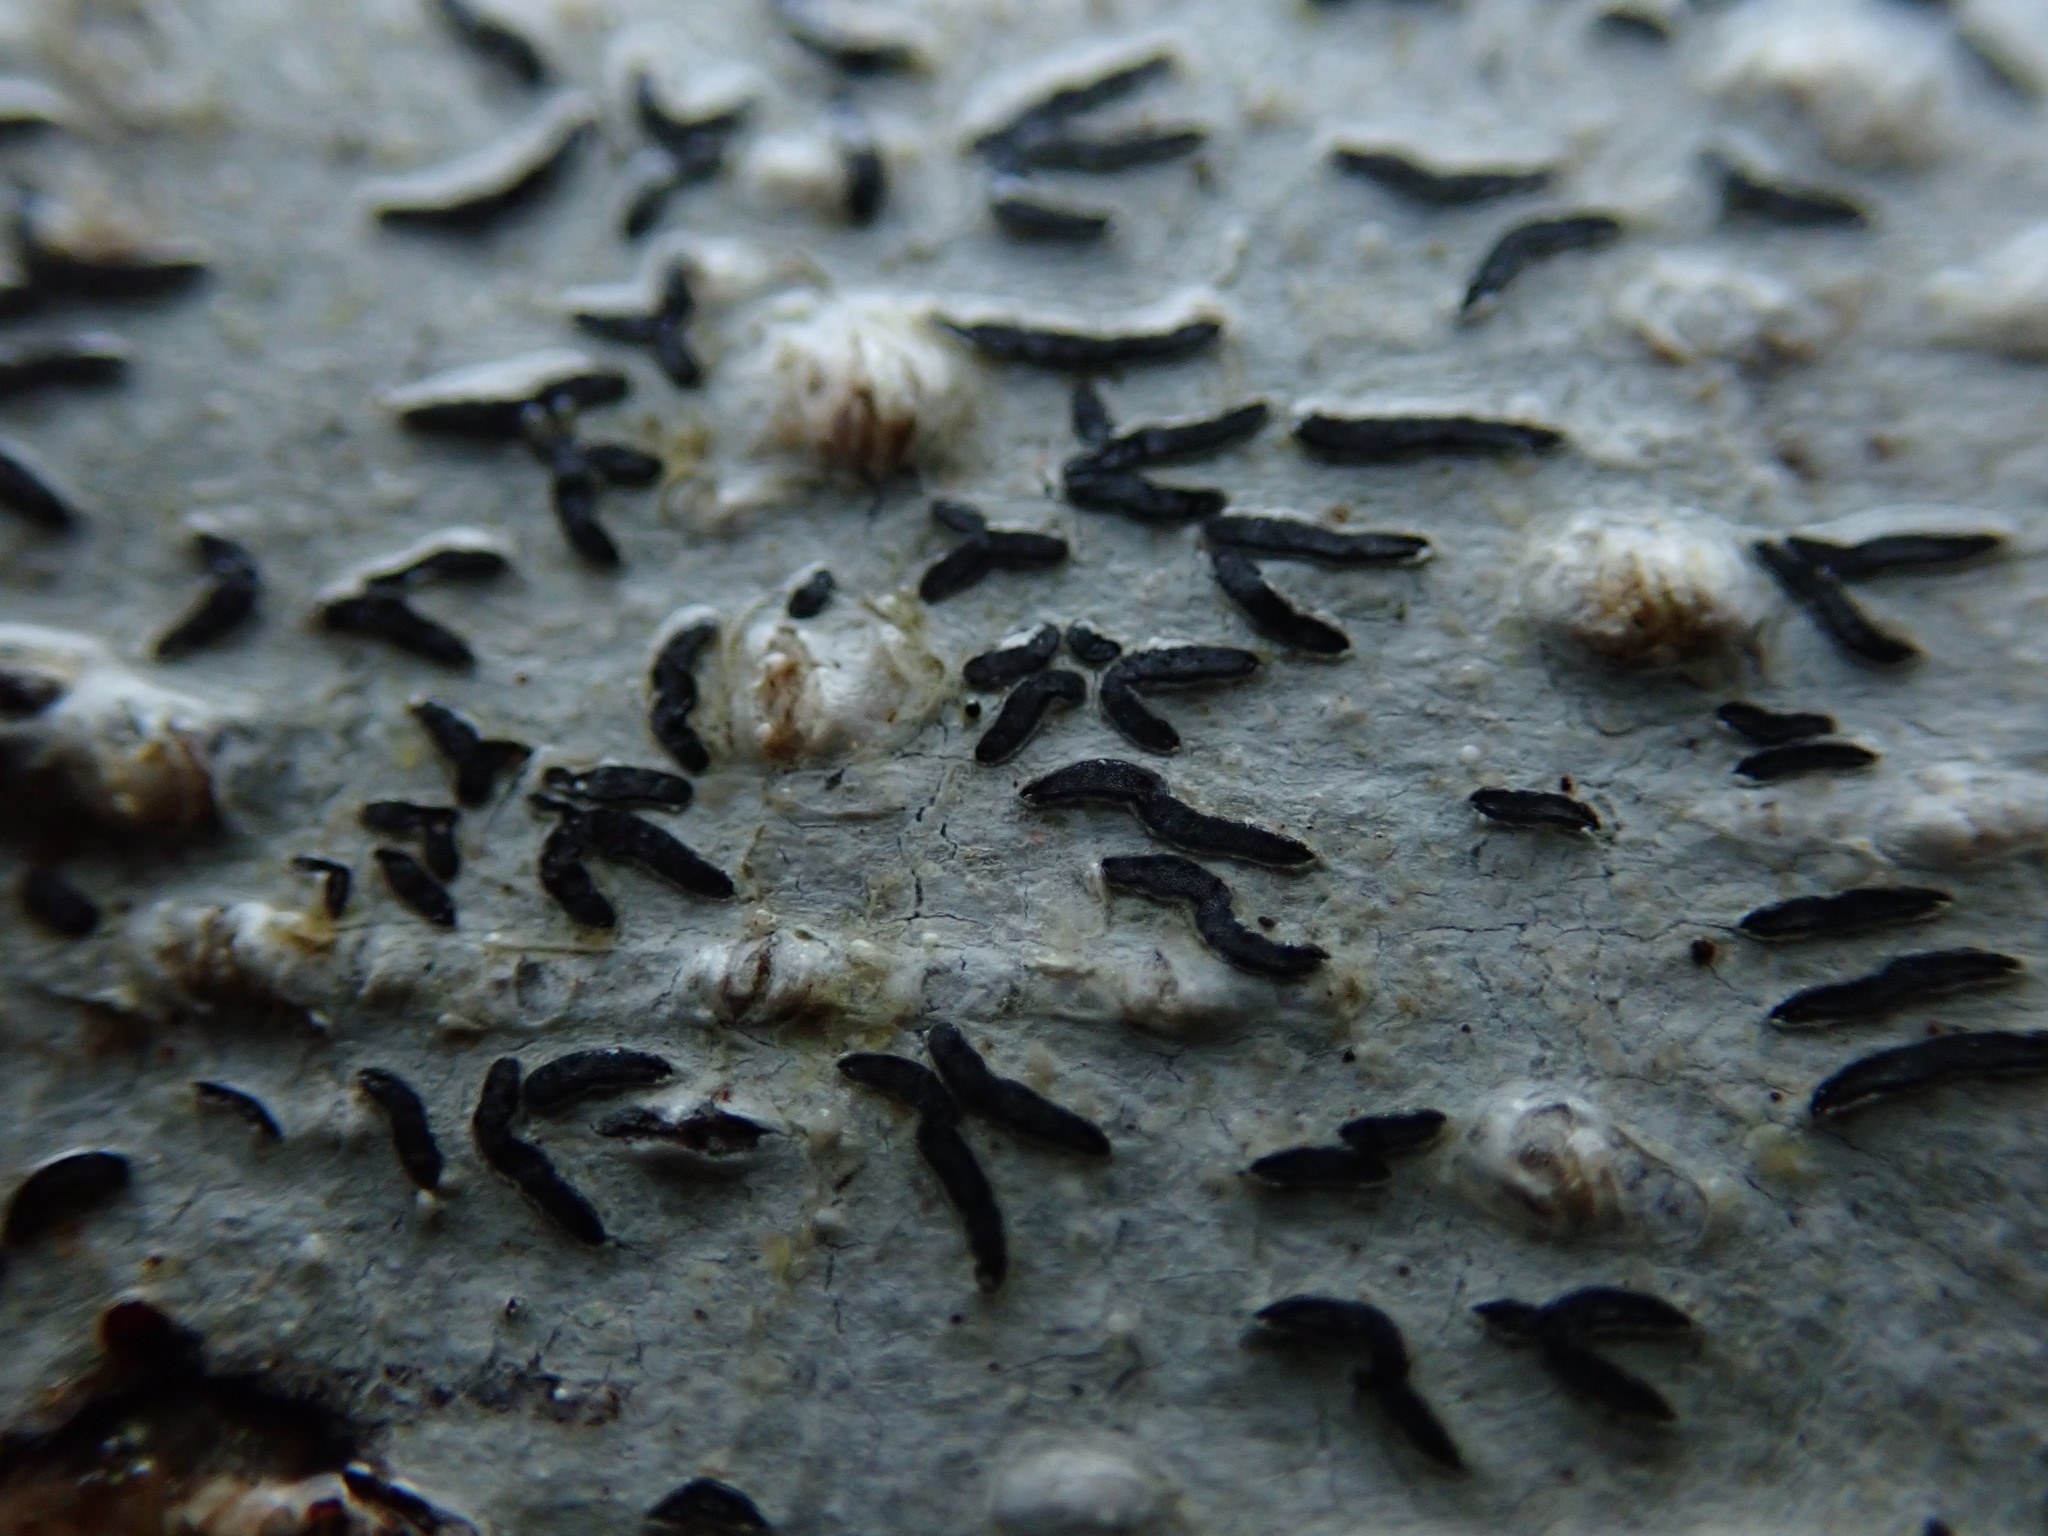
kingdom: Fungi
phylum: Ascomycota
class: Lecanoromycetes
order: Ostropales
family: Graphidaceae
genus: Graphis
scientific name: Graphis scripta
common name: Script lichen
